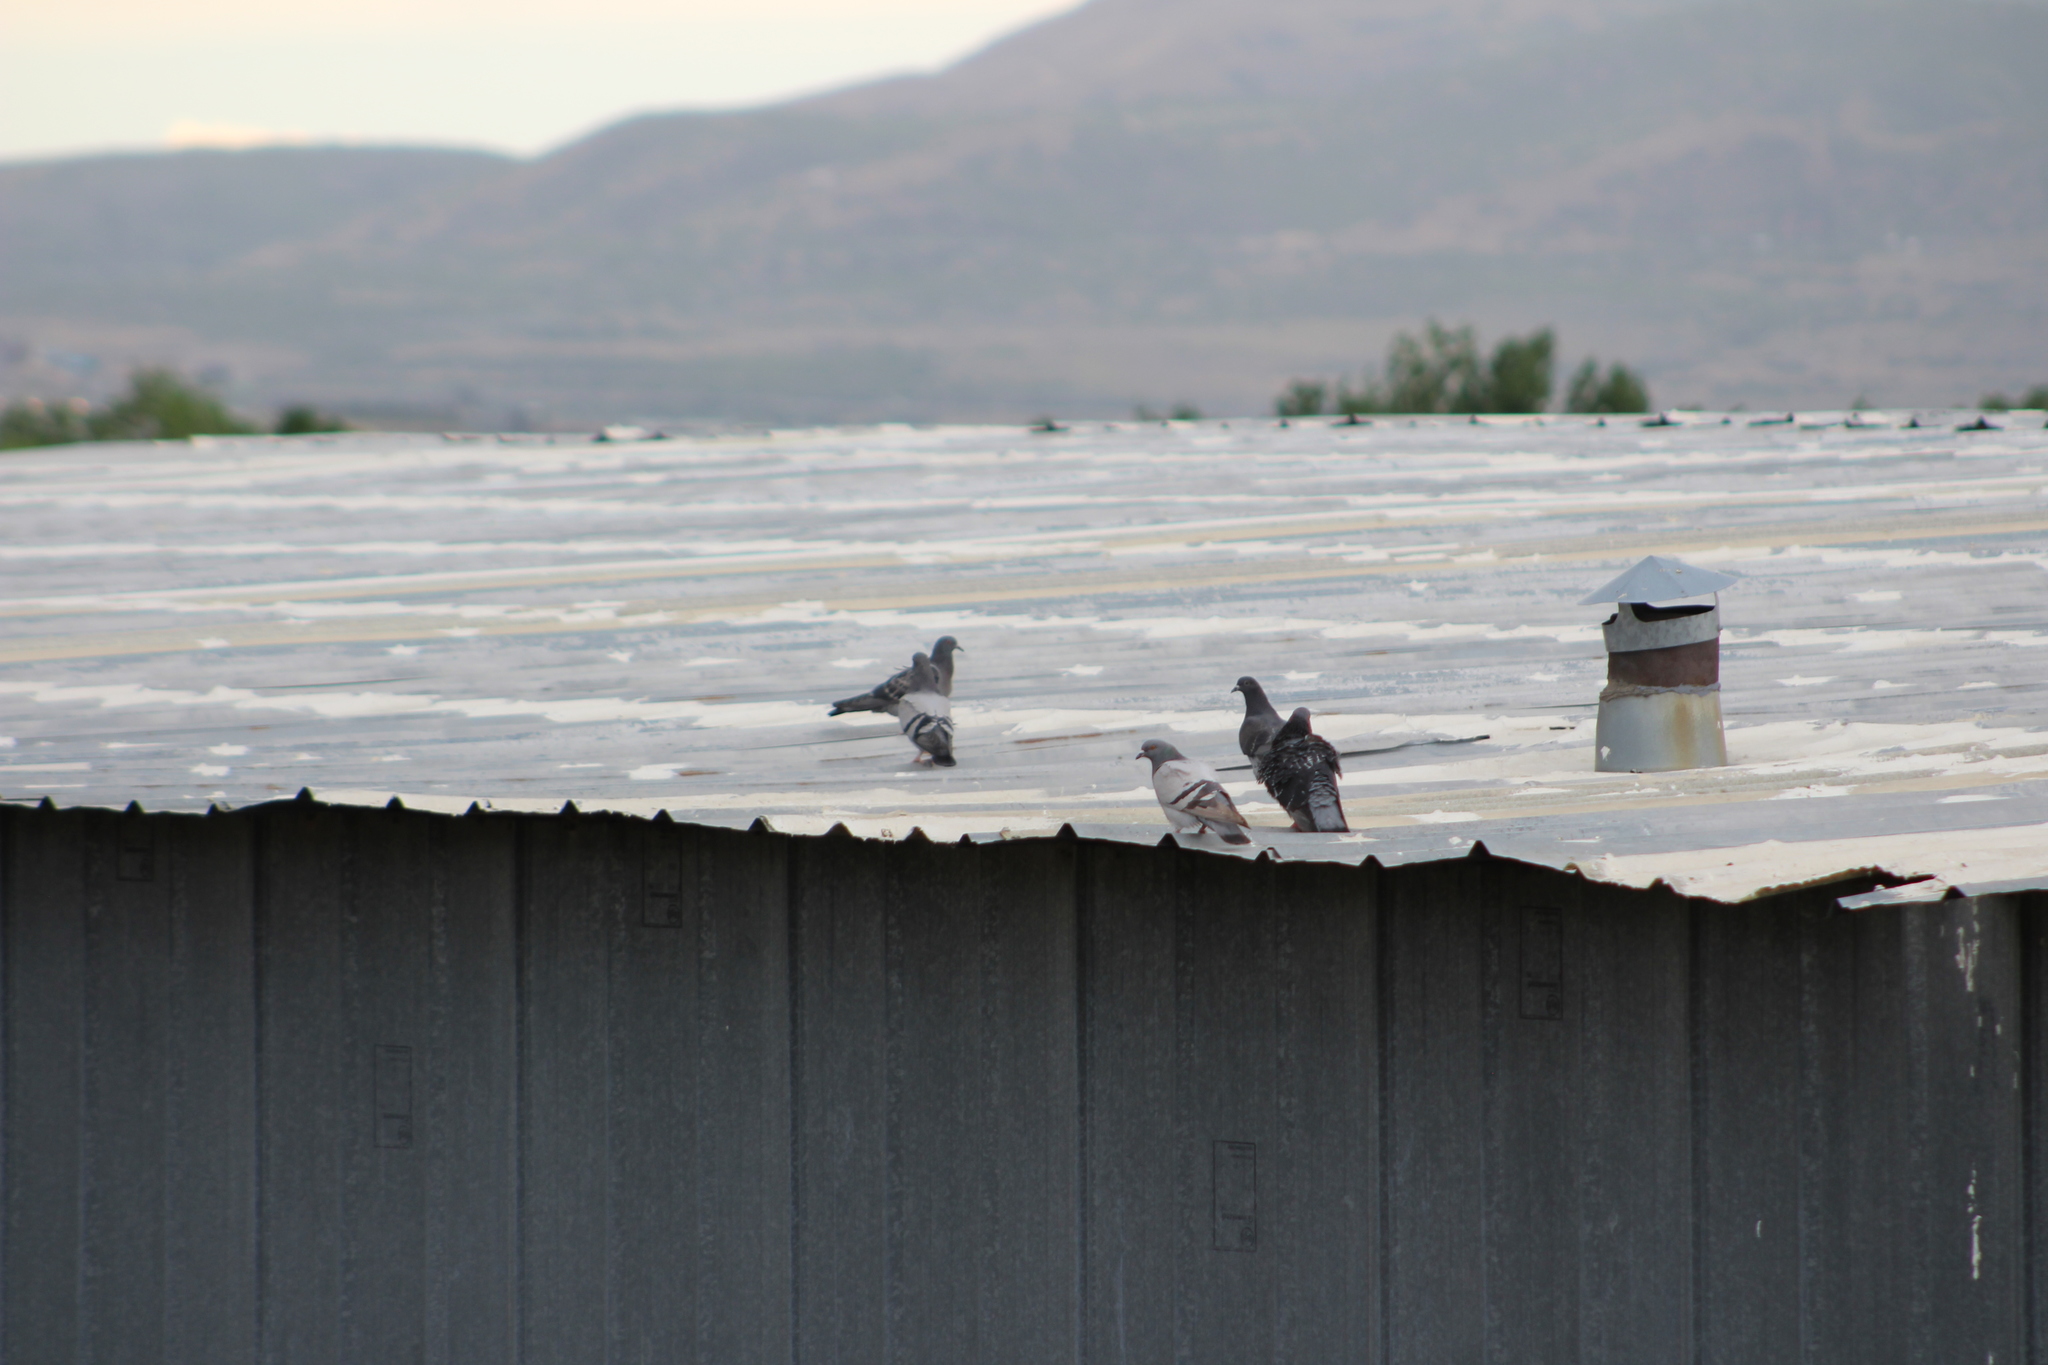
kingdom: Animalia
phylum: Chordata
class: Aves
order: Columbiformes
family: Columbidae
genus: Columba
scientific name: Columba livia
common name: Rock pigeon
